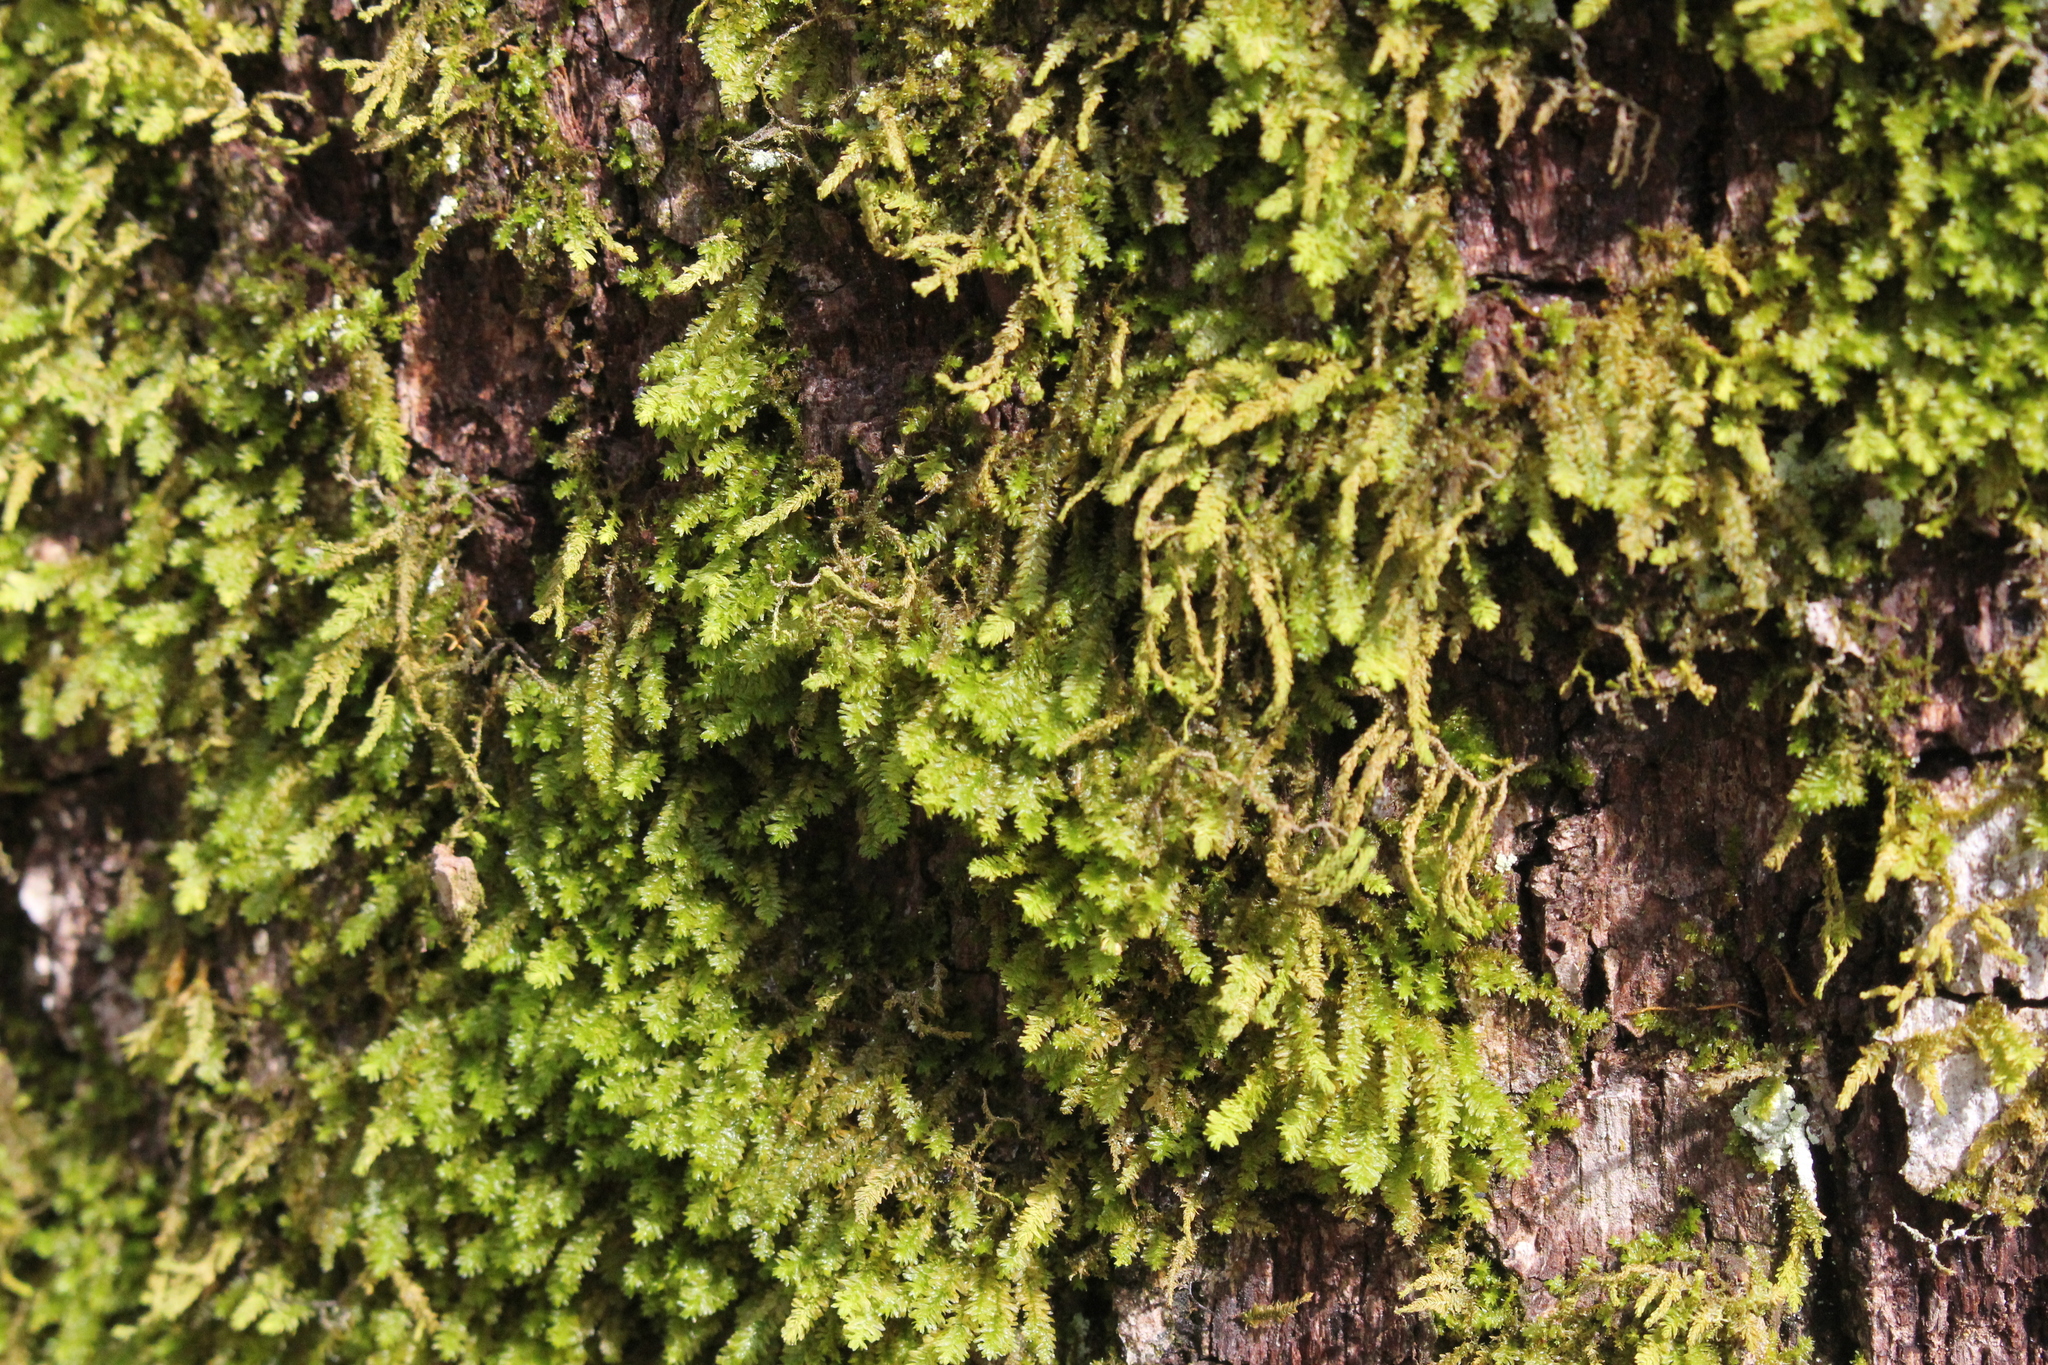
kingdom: Plantae
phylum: Bryophyta
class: Bryopsida
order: Hypnales
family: Anomodontaceae
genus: Anomodon
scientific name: Anomodon minor
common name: Blunt-leaved anomodon
